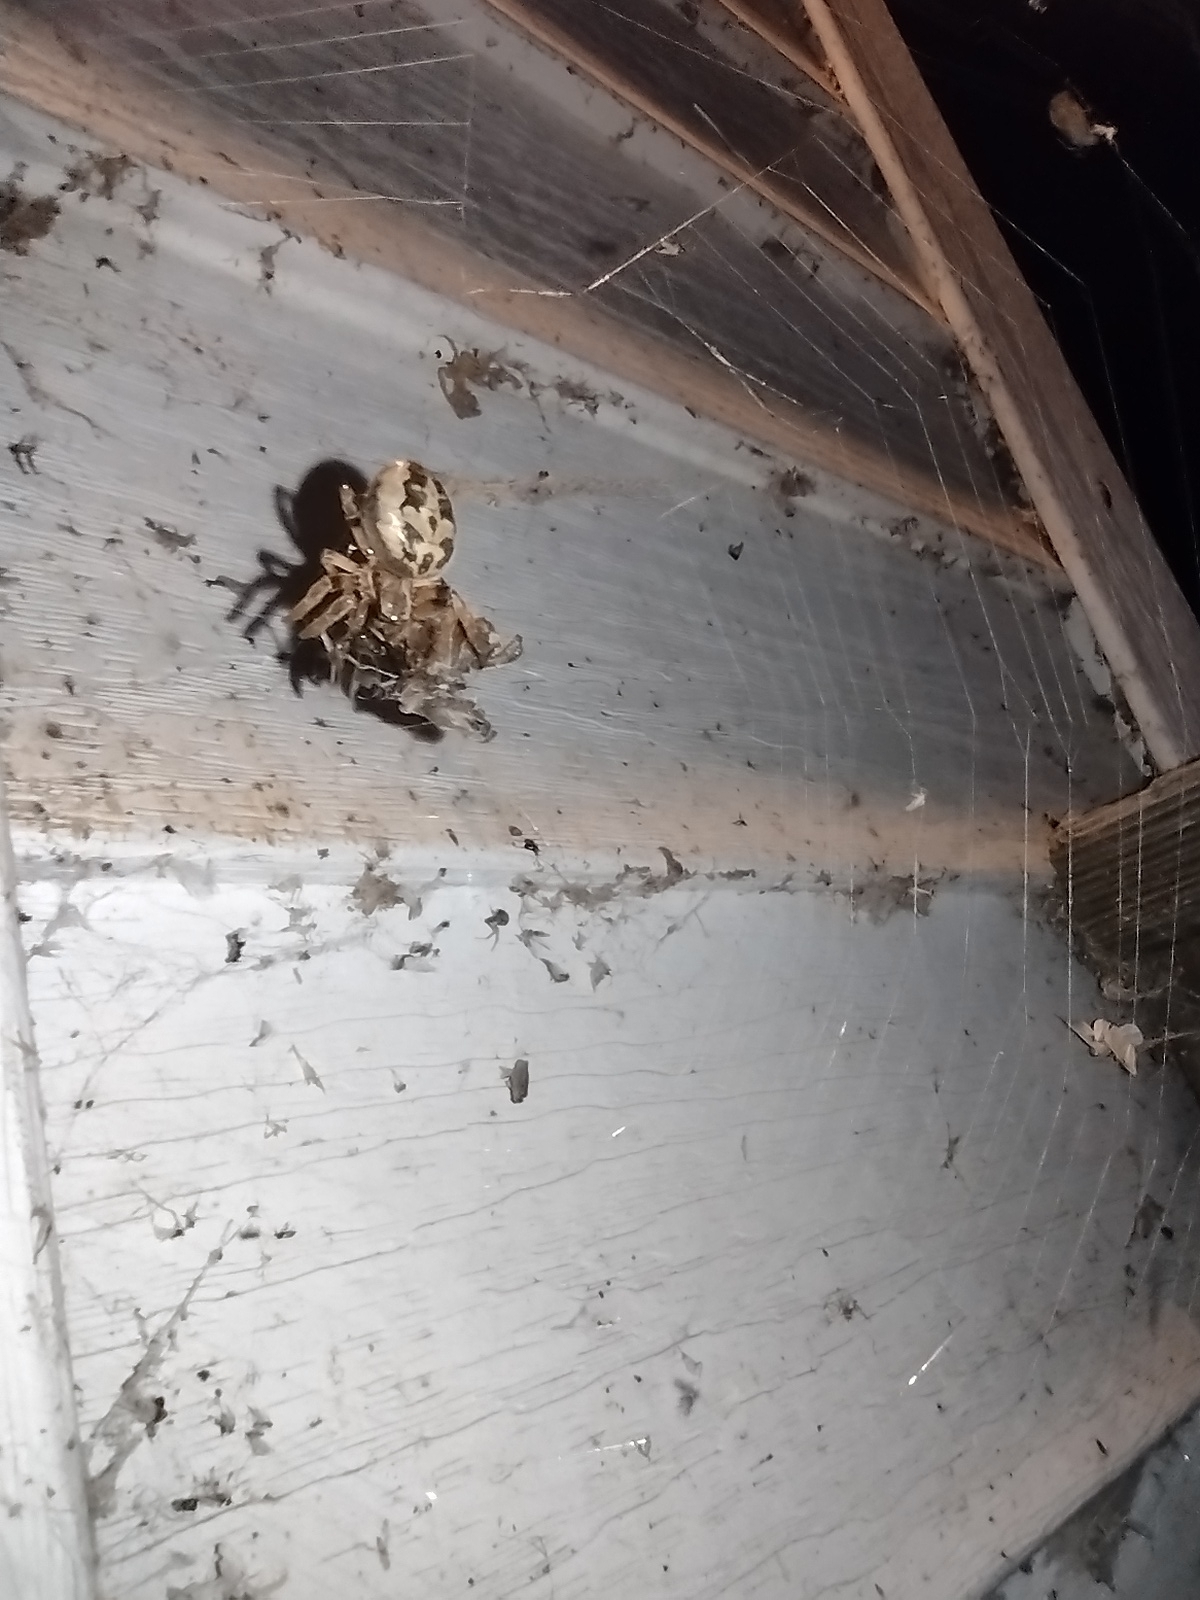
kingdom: Animalia
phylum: Arthropoda
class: Arachnida
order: Araneae
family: Araneidae
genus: Larinioides
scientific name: Larinioides cornutus
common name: Furrow orbweaver
